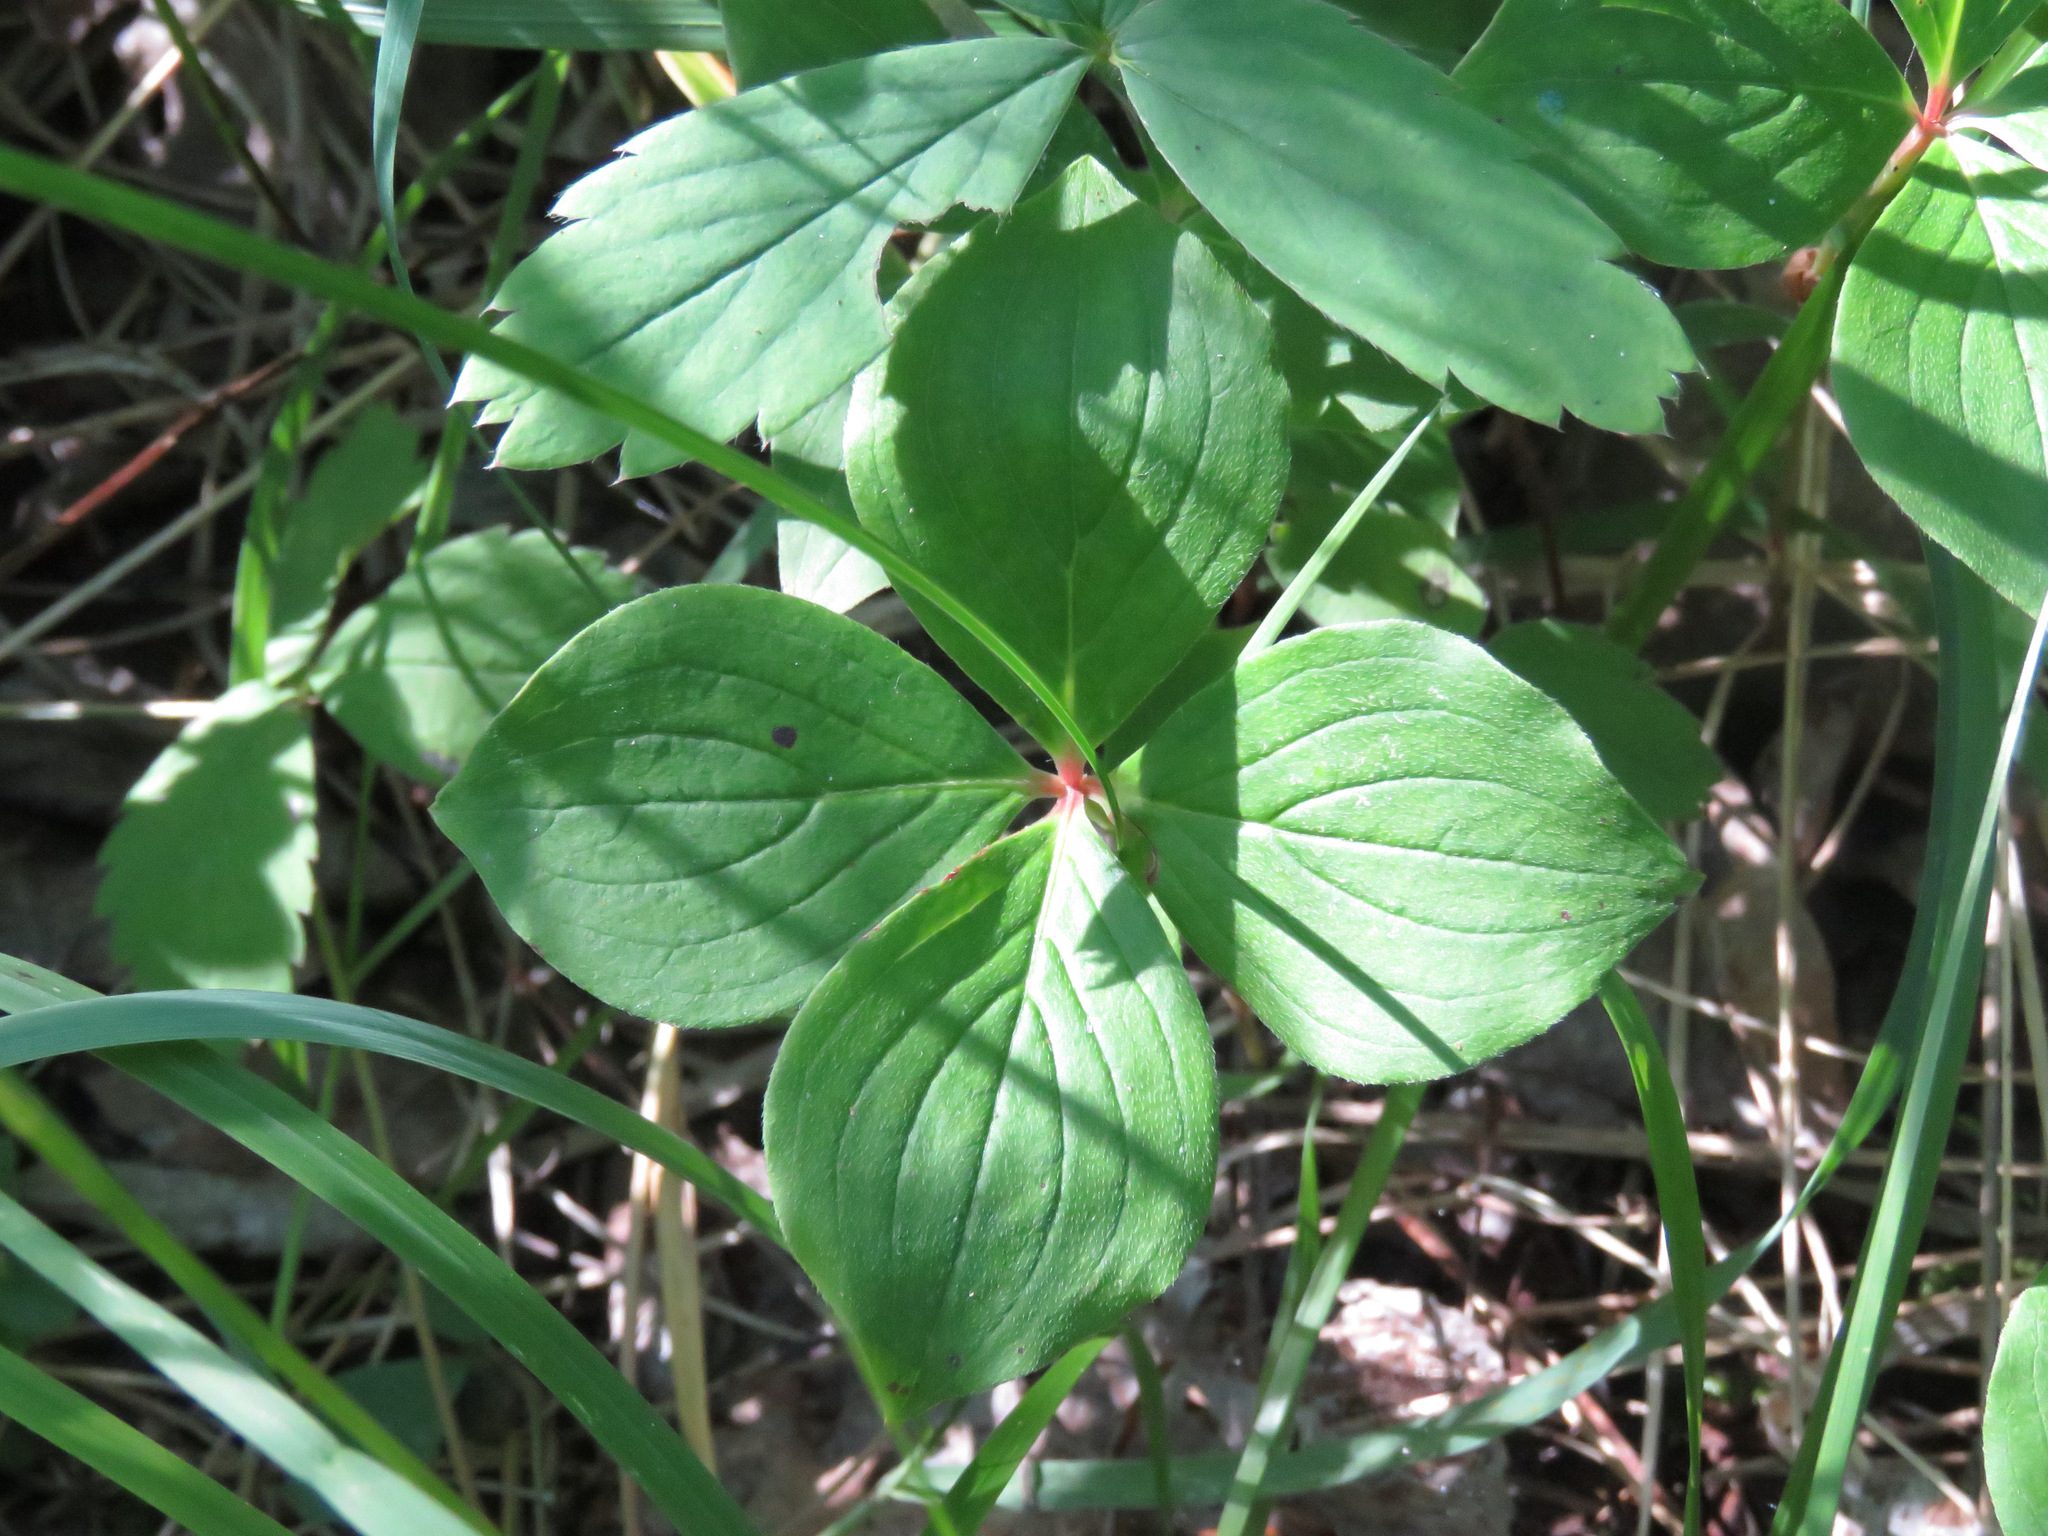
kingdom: Plantae
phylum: Tracheophyta
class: Magnoliopsida
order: Cornales
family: Cornaceae
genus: Cornus
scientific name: Cornus canadensis
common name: Creeping dogwood
